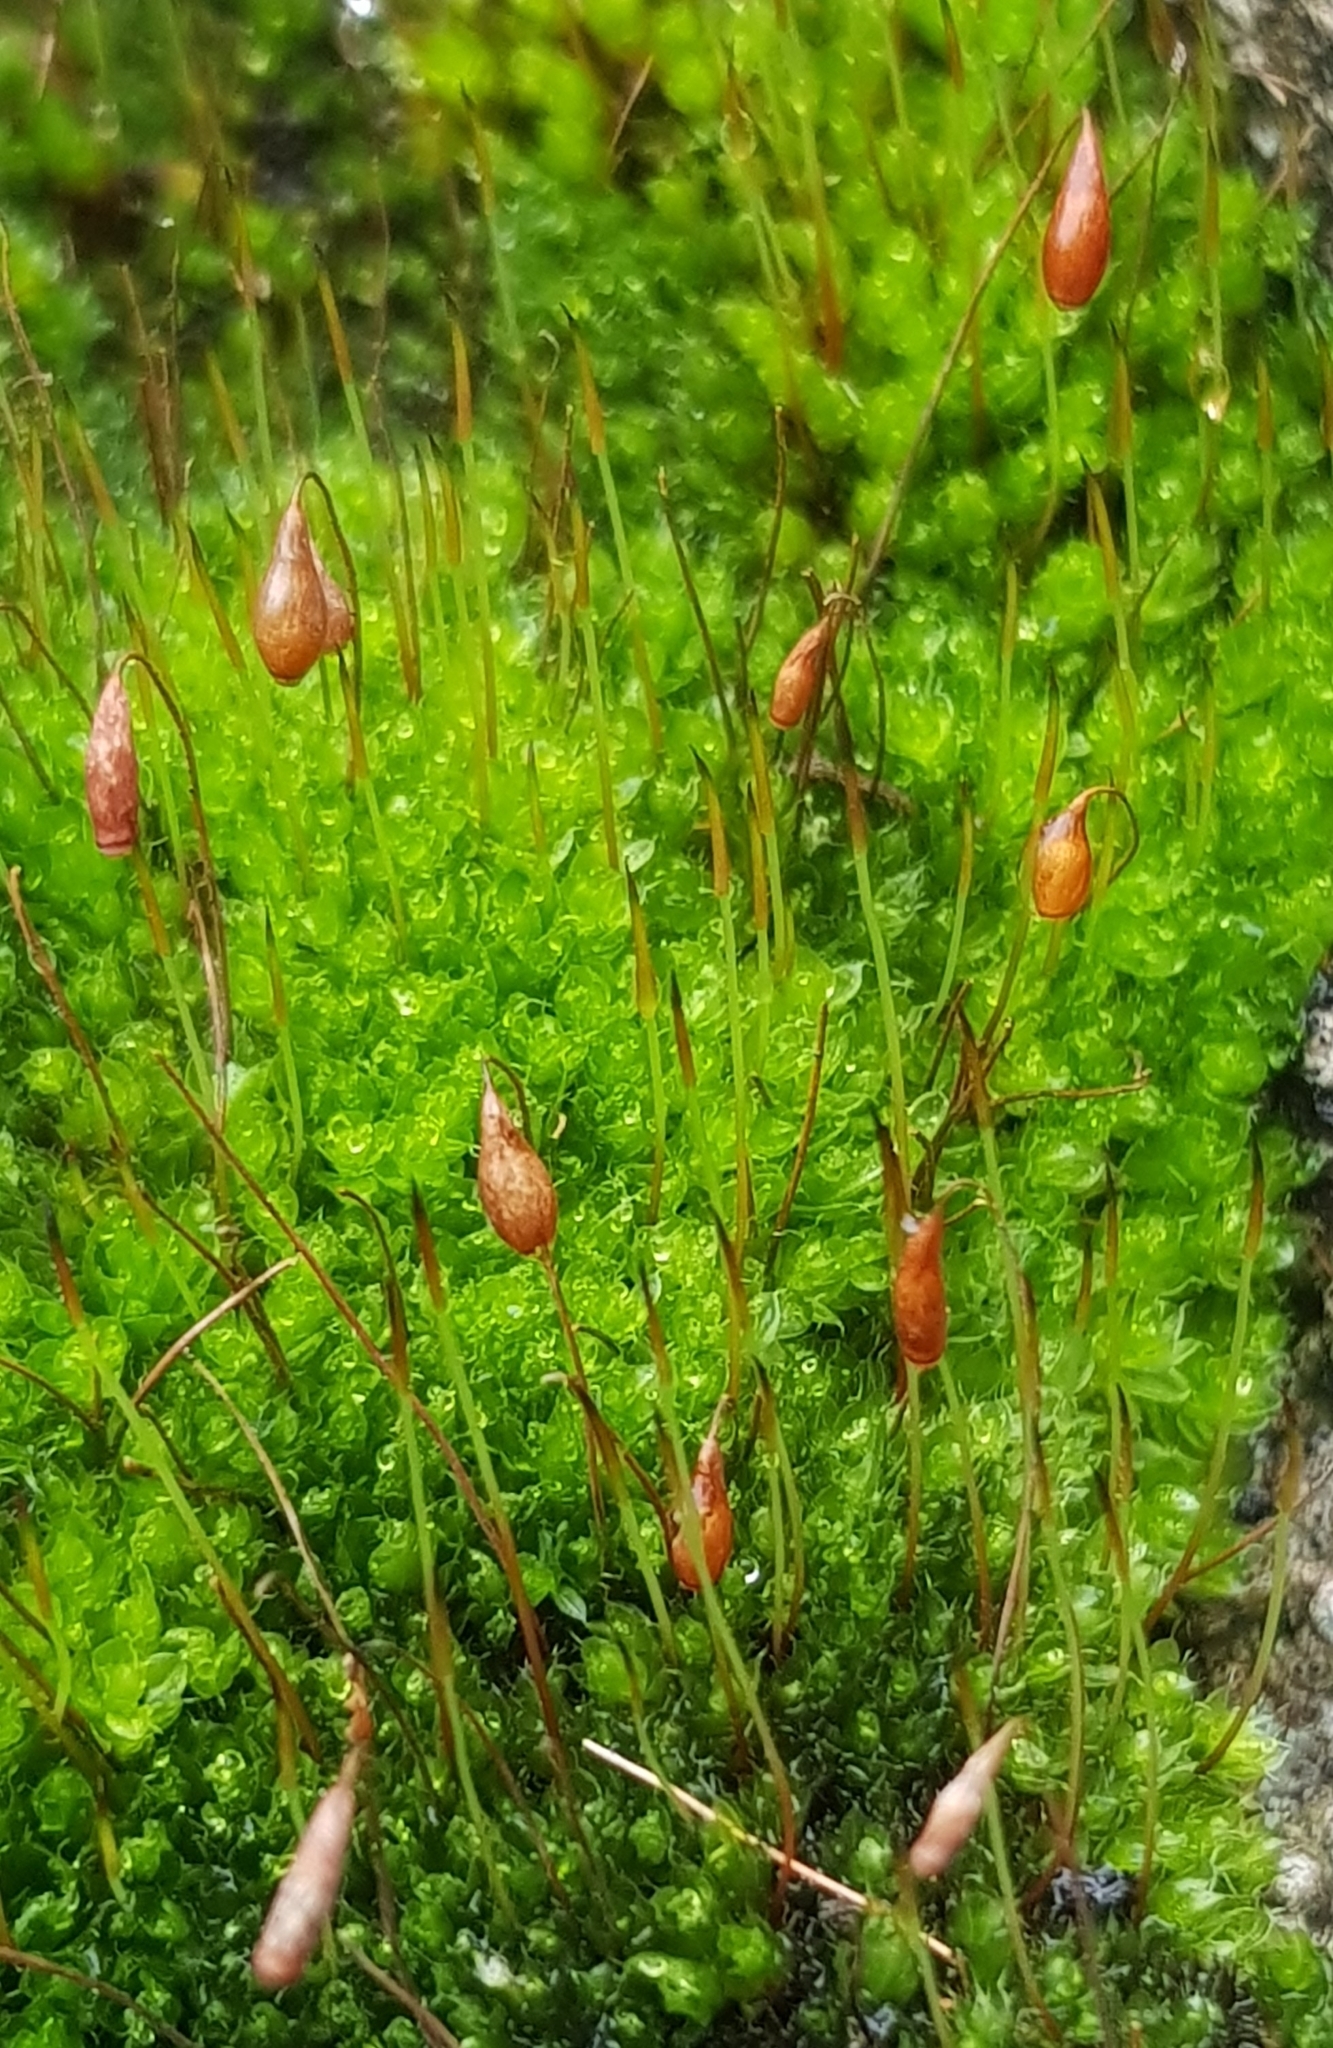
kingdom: Plantae
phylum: Bryophyta
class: Bryopsida
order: Bryales
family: Bryaceae
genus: Rosulabryum
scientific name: Rosulabryum capillare
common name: Capillary thread-moss
